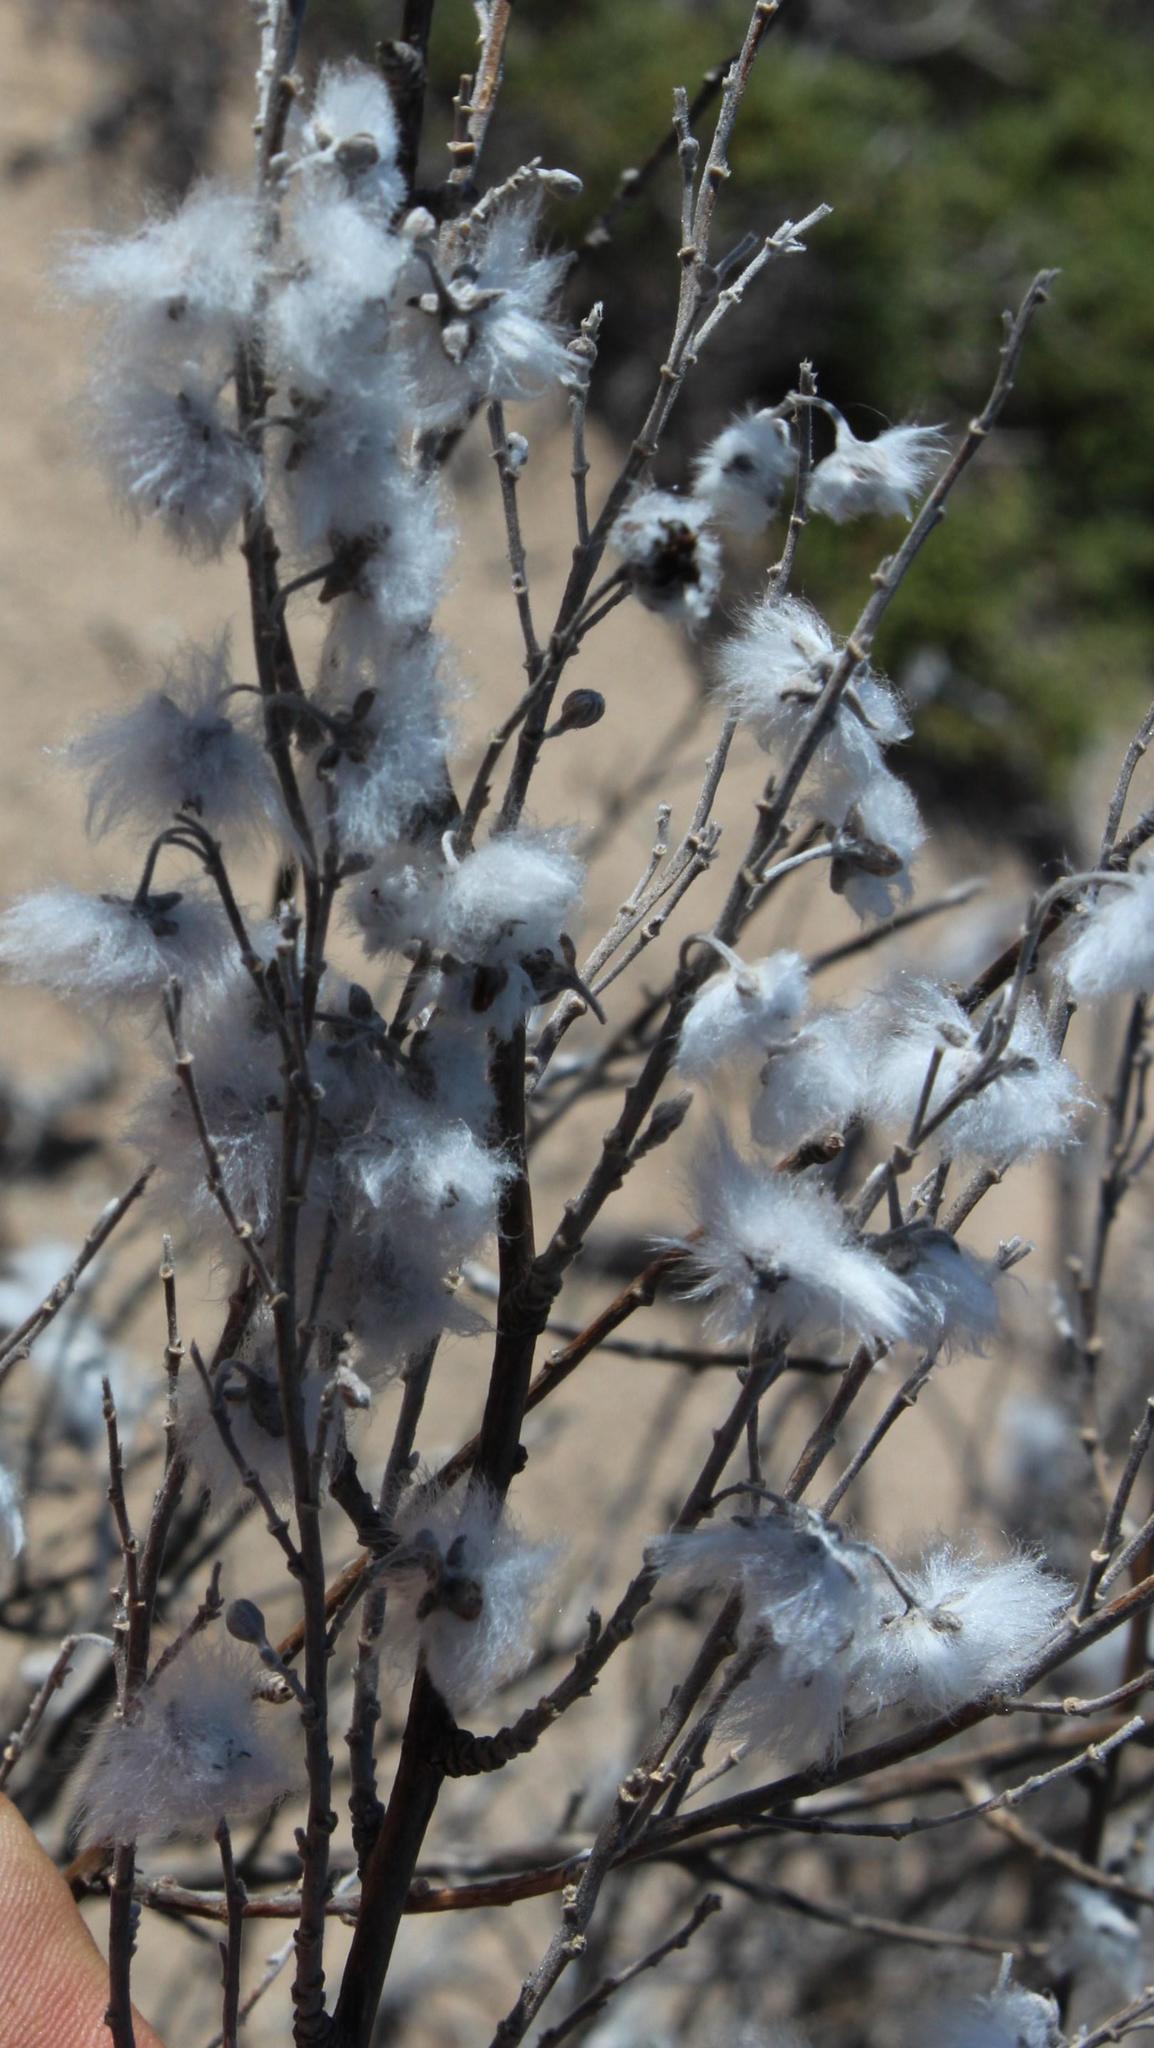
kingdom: Plantae
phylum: Tracheophyta
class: Magnoliopsida
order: Asterales
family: Asteraceae
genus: Eriocephalus
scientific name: Eriocephalus racemosus
